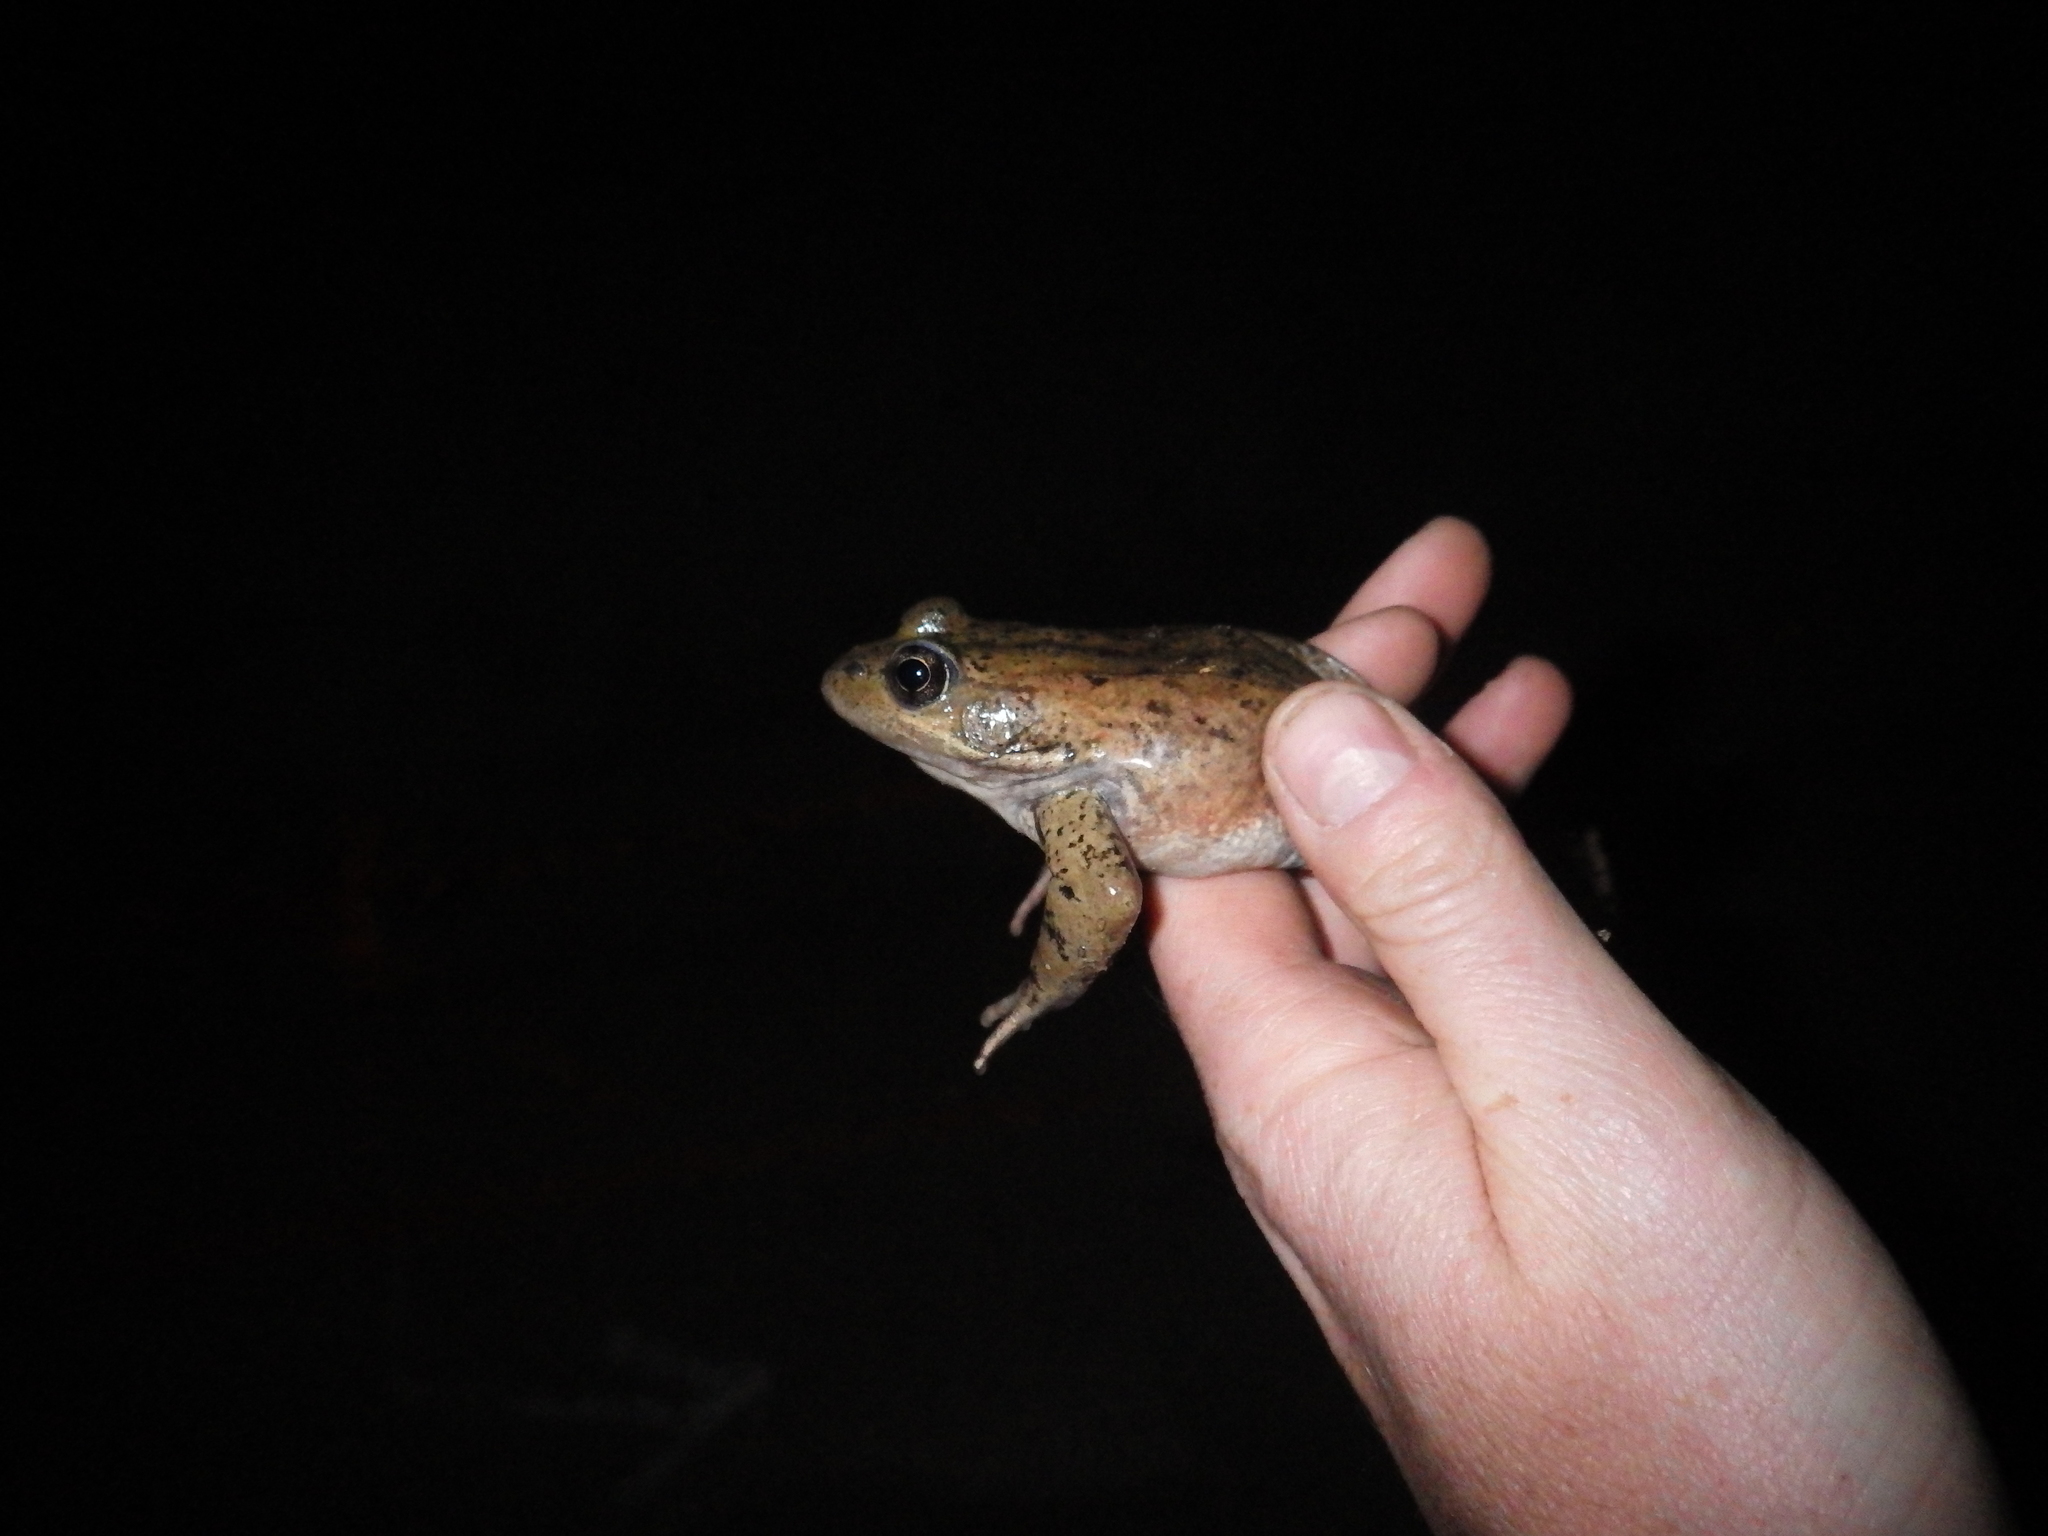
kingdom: Animalia
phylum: Chordata
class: Amphibia
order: Anura
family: Ranidae
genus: Rana
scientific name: Rana draytonii
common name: California red-legged frog
